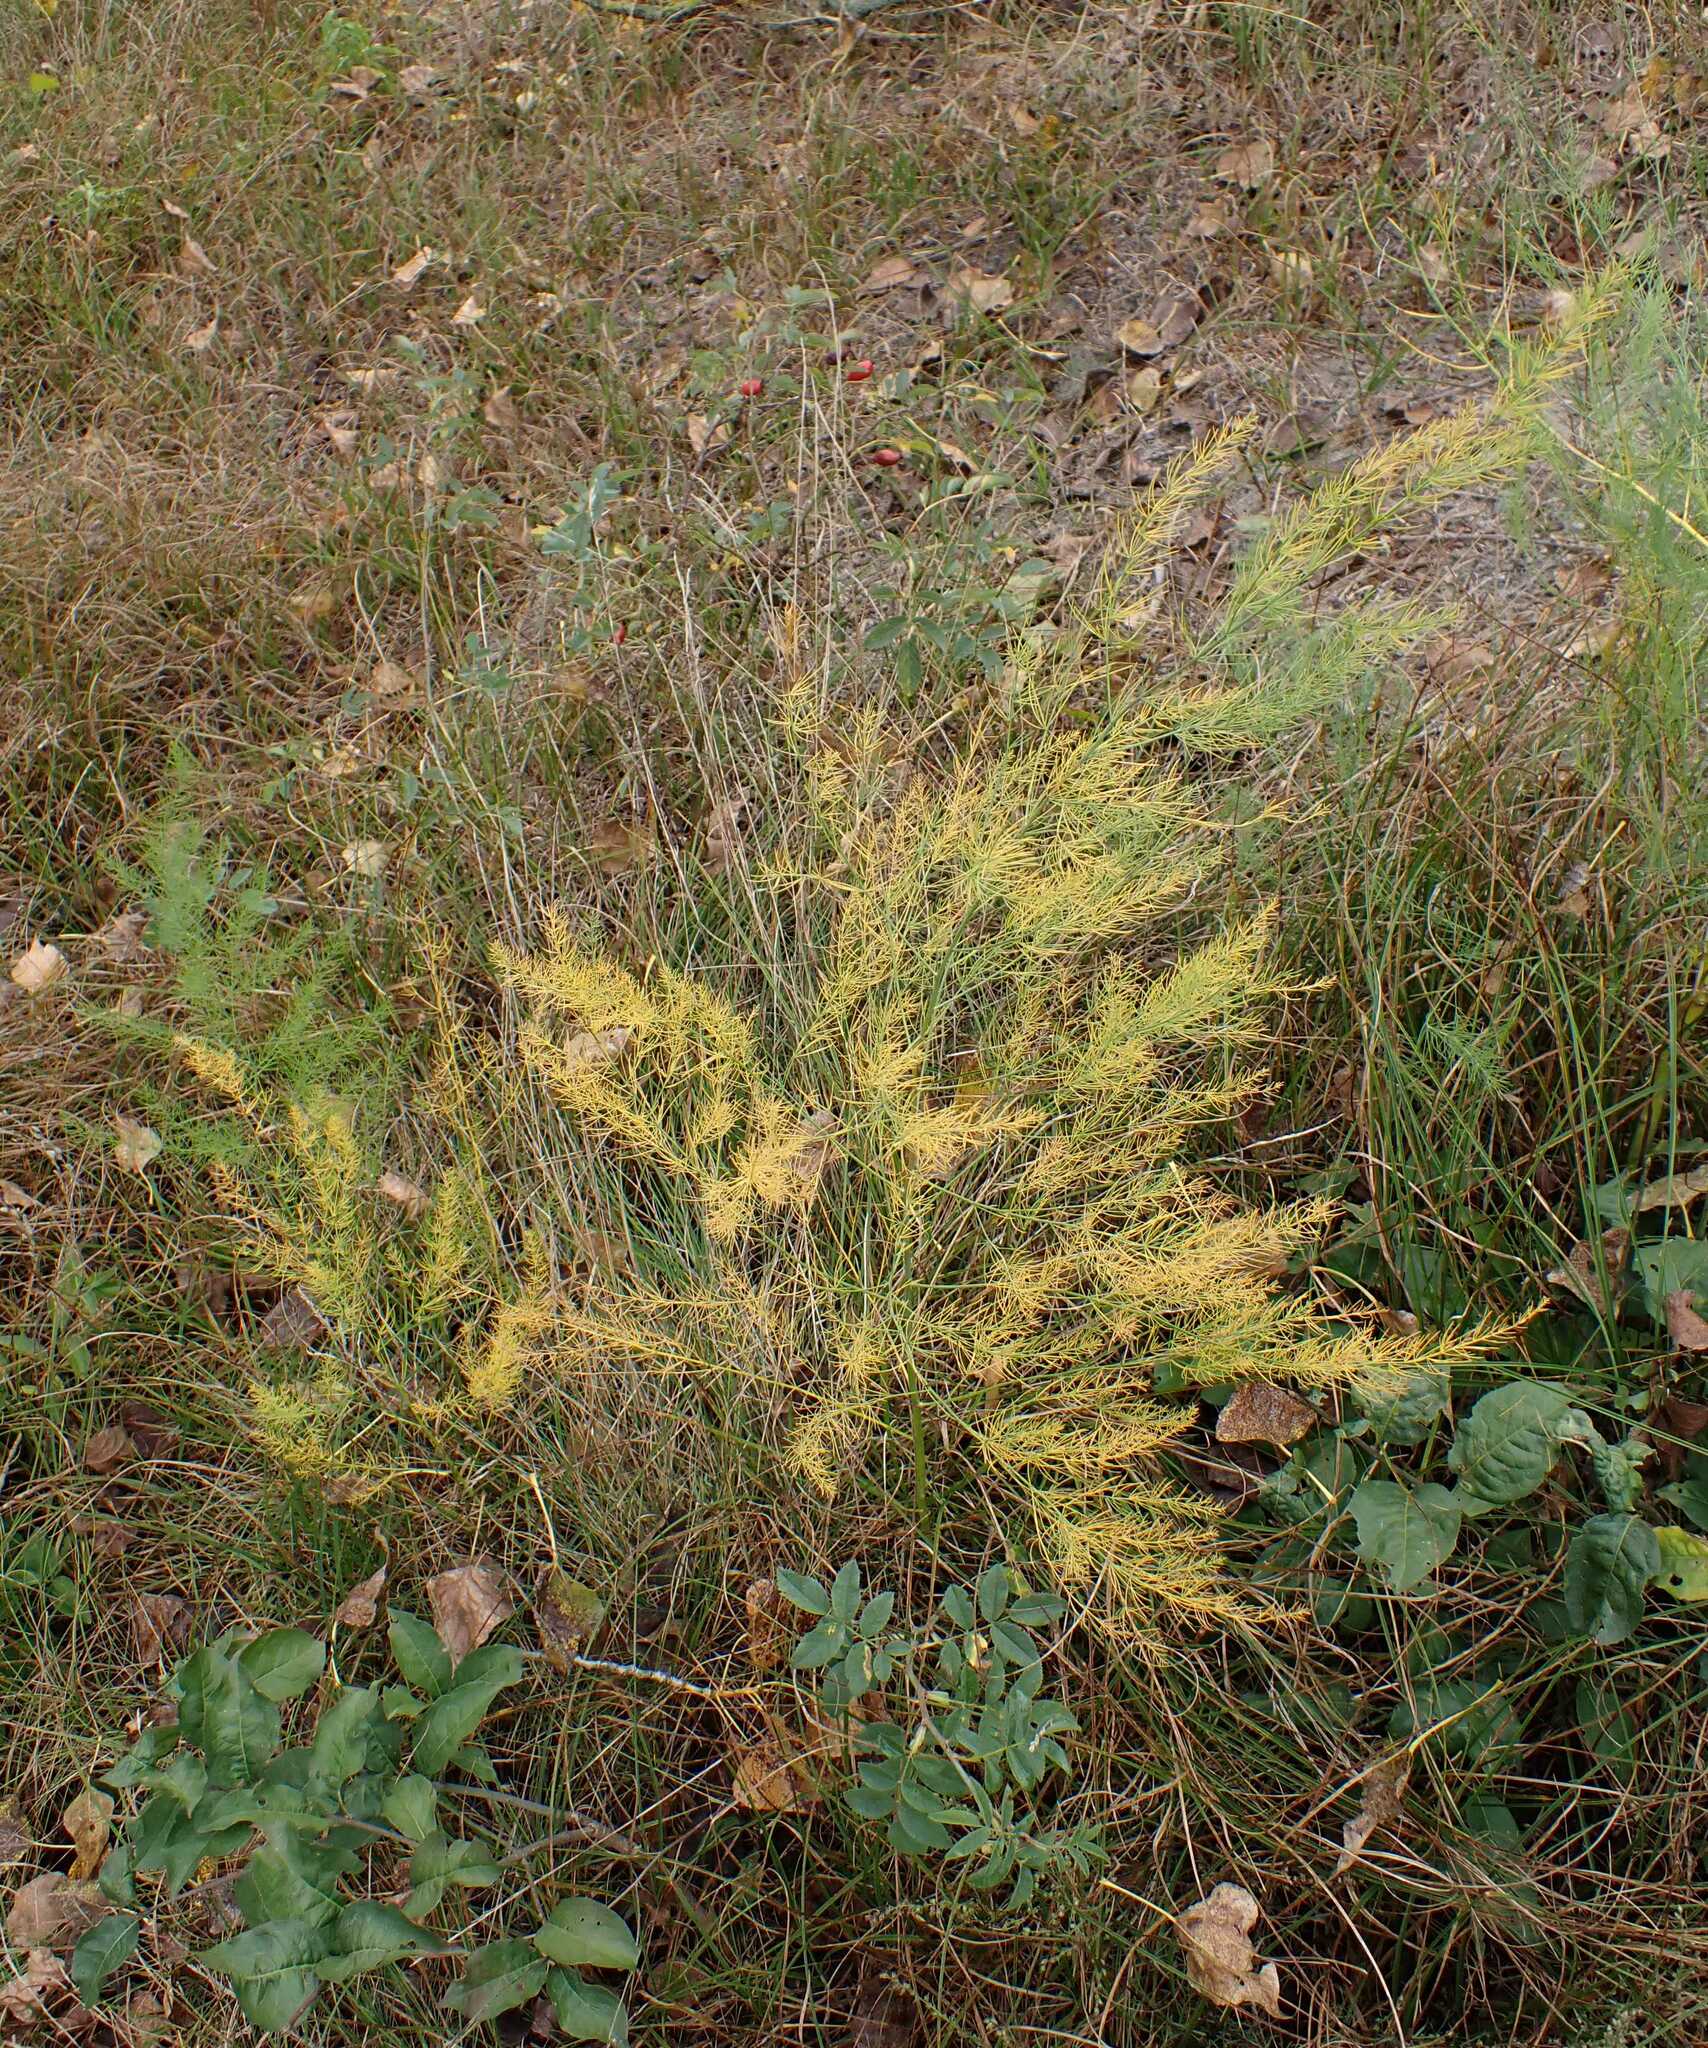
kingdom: Plantae
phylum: Tracheophyta
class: Liliopsida
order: Asparagales
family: Asparagaceae
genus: Asparagus
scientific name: Asparagus officinalis
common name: Garden asparagus
